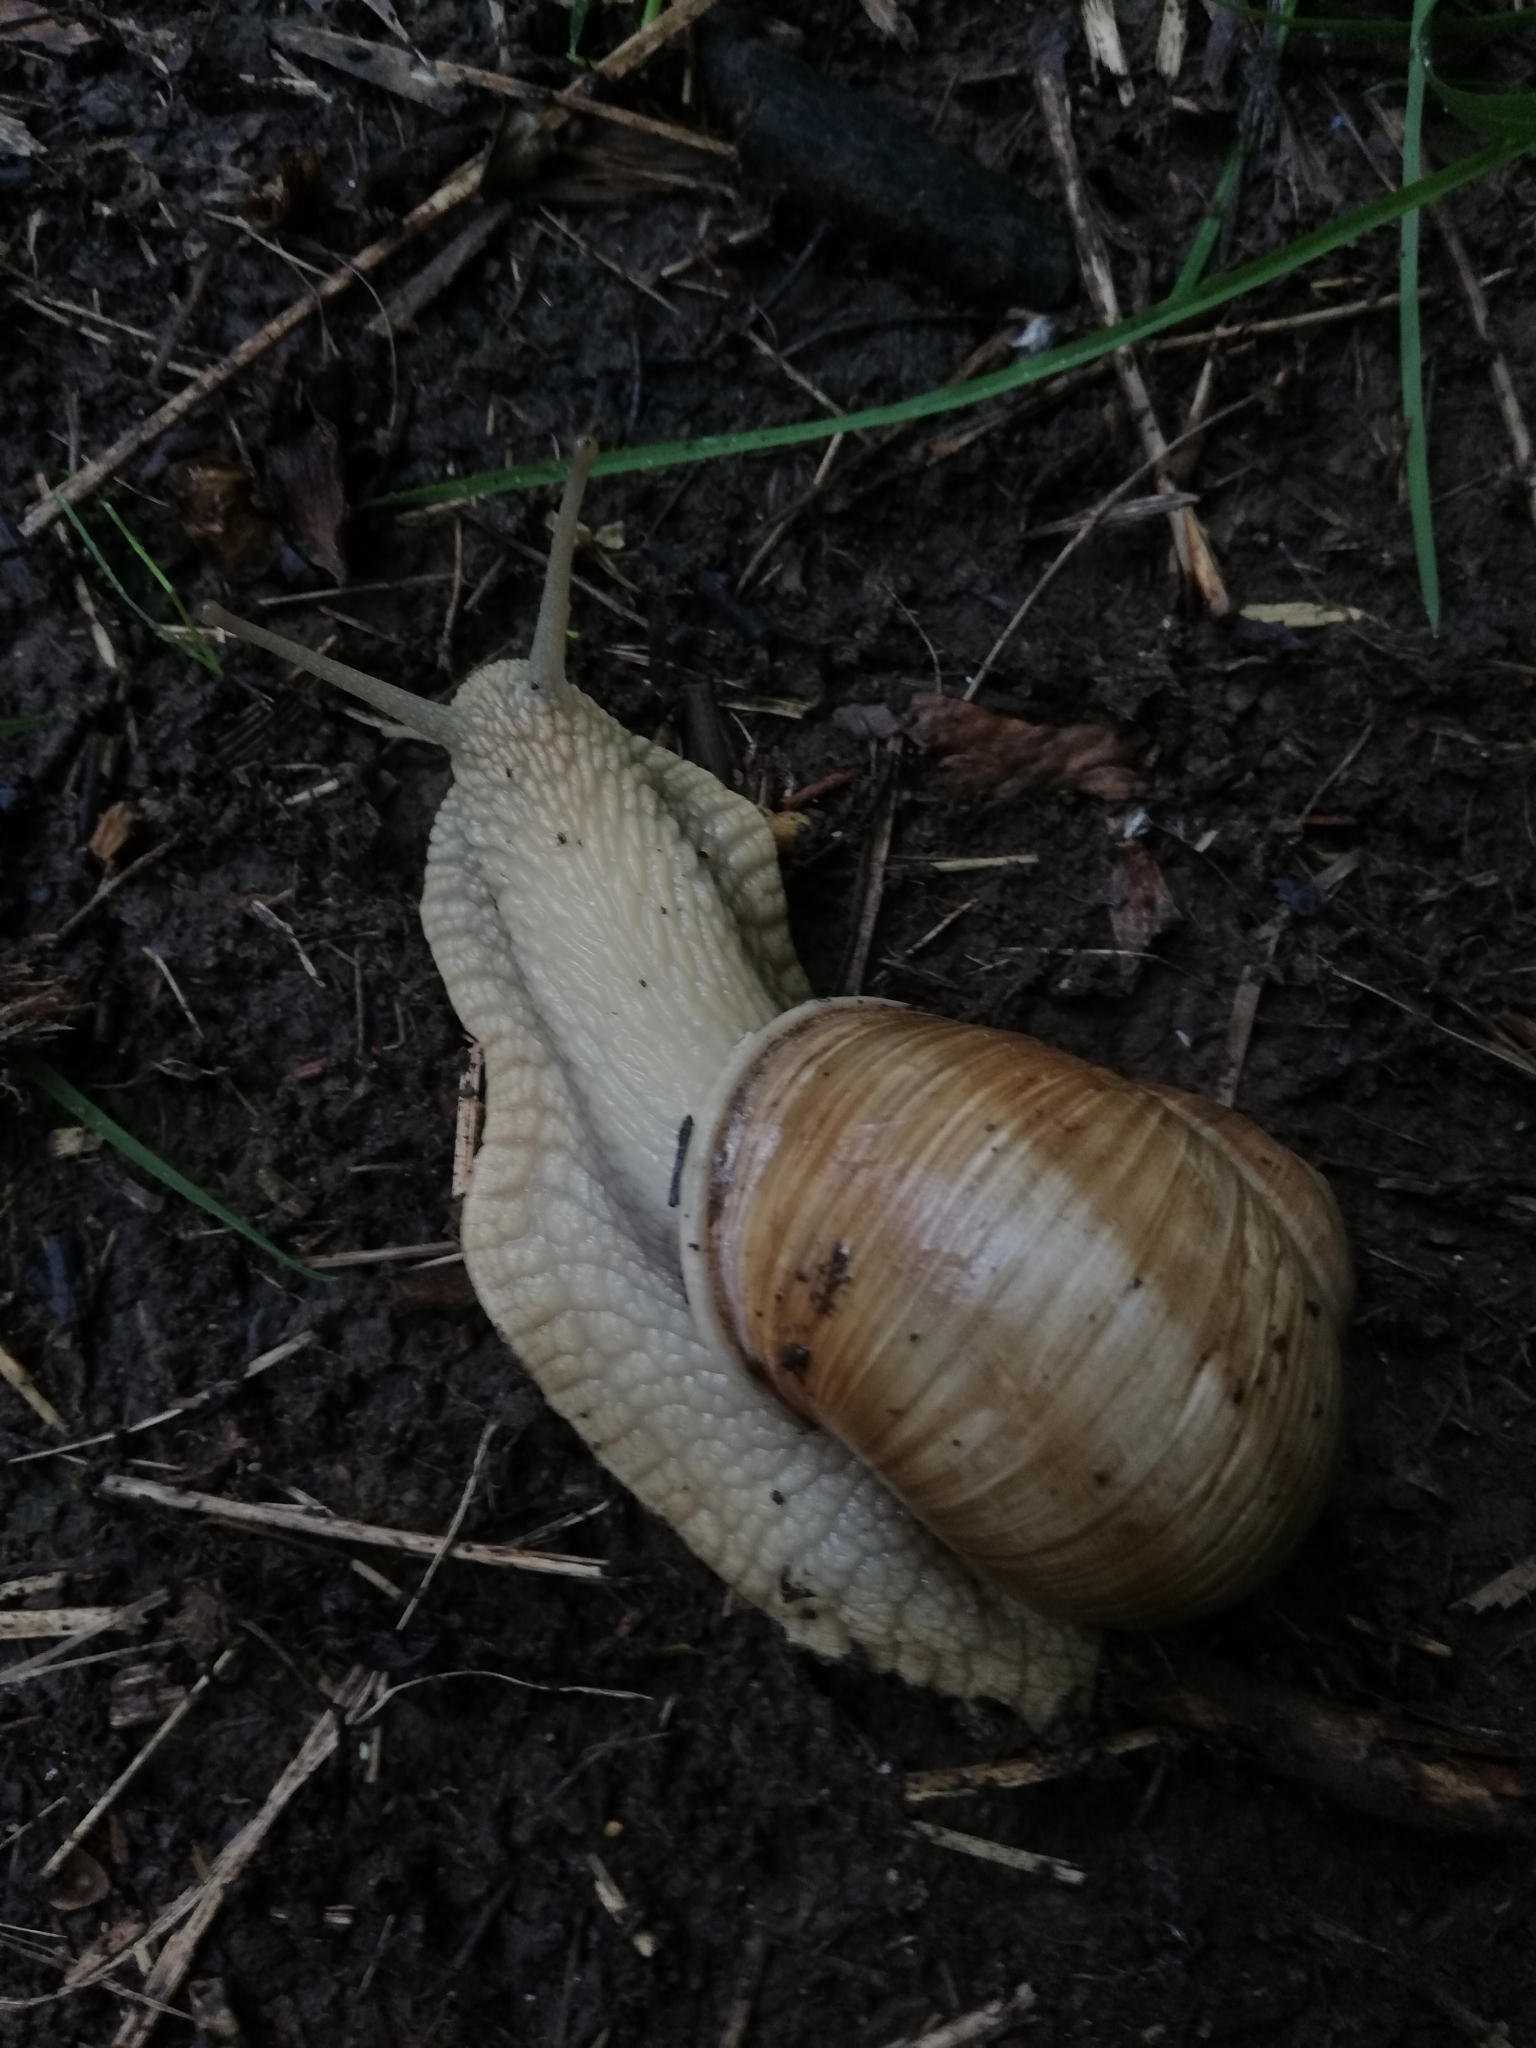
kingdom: Animalia
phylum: Mollusca
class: Gastropoda
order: Stylommatophora
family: Helicidae
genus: Helix
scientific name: Helix pomatia
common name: Roman snail
